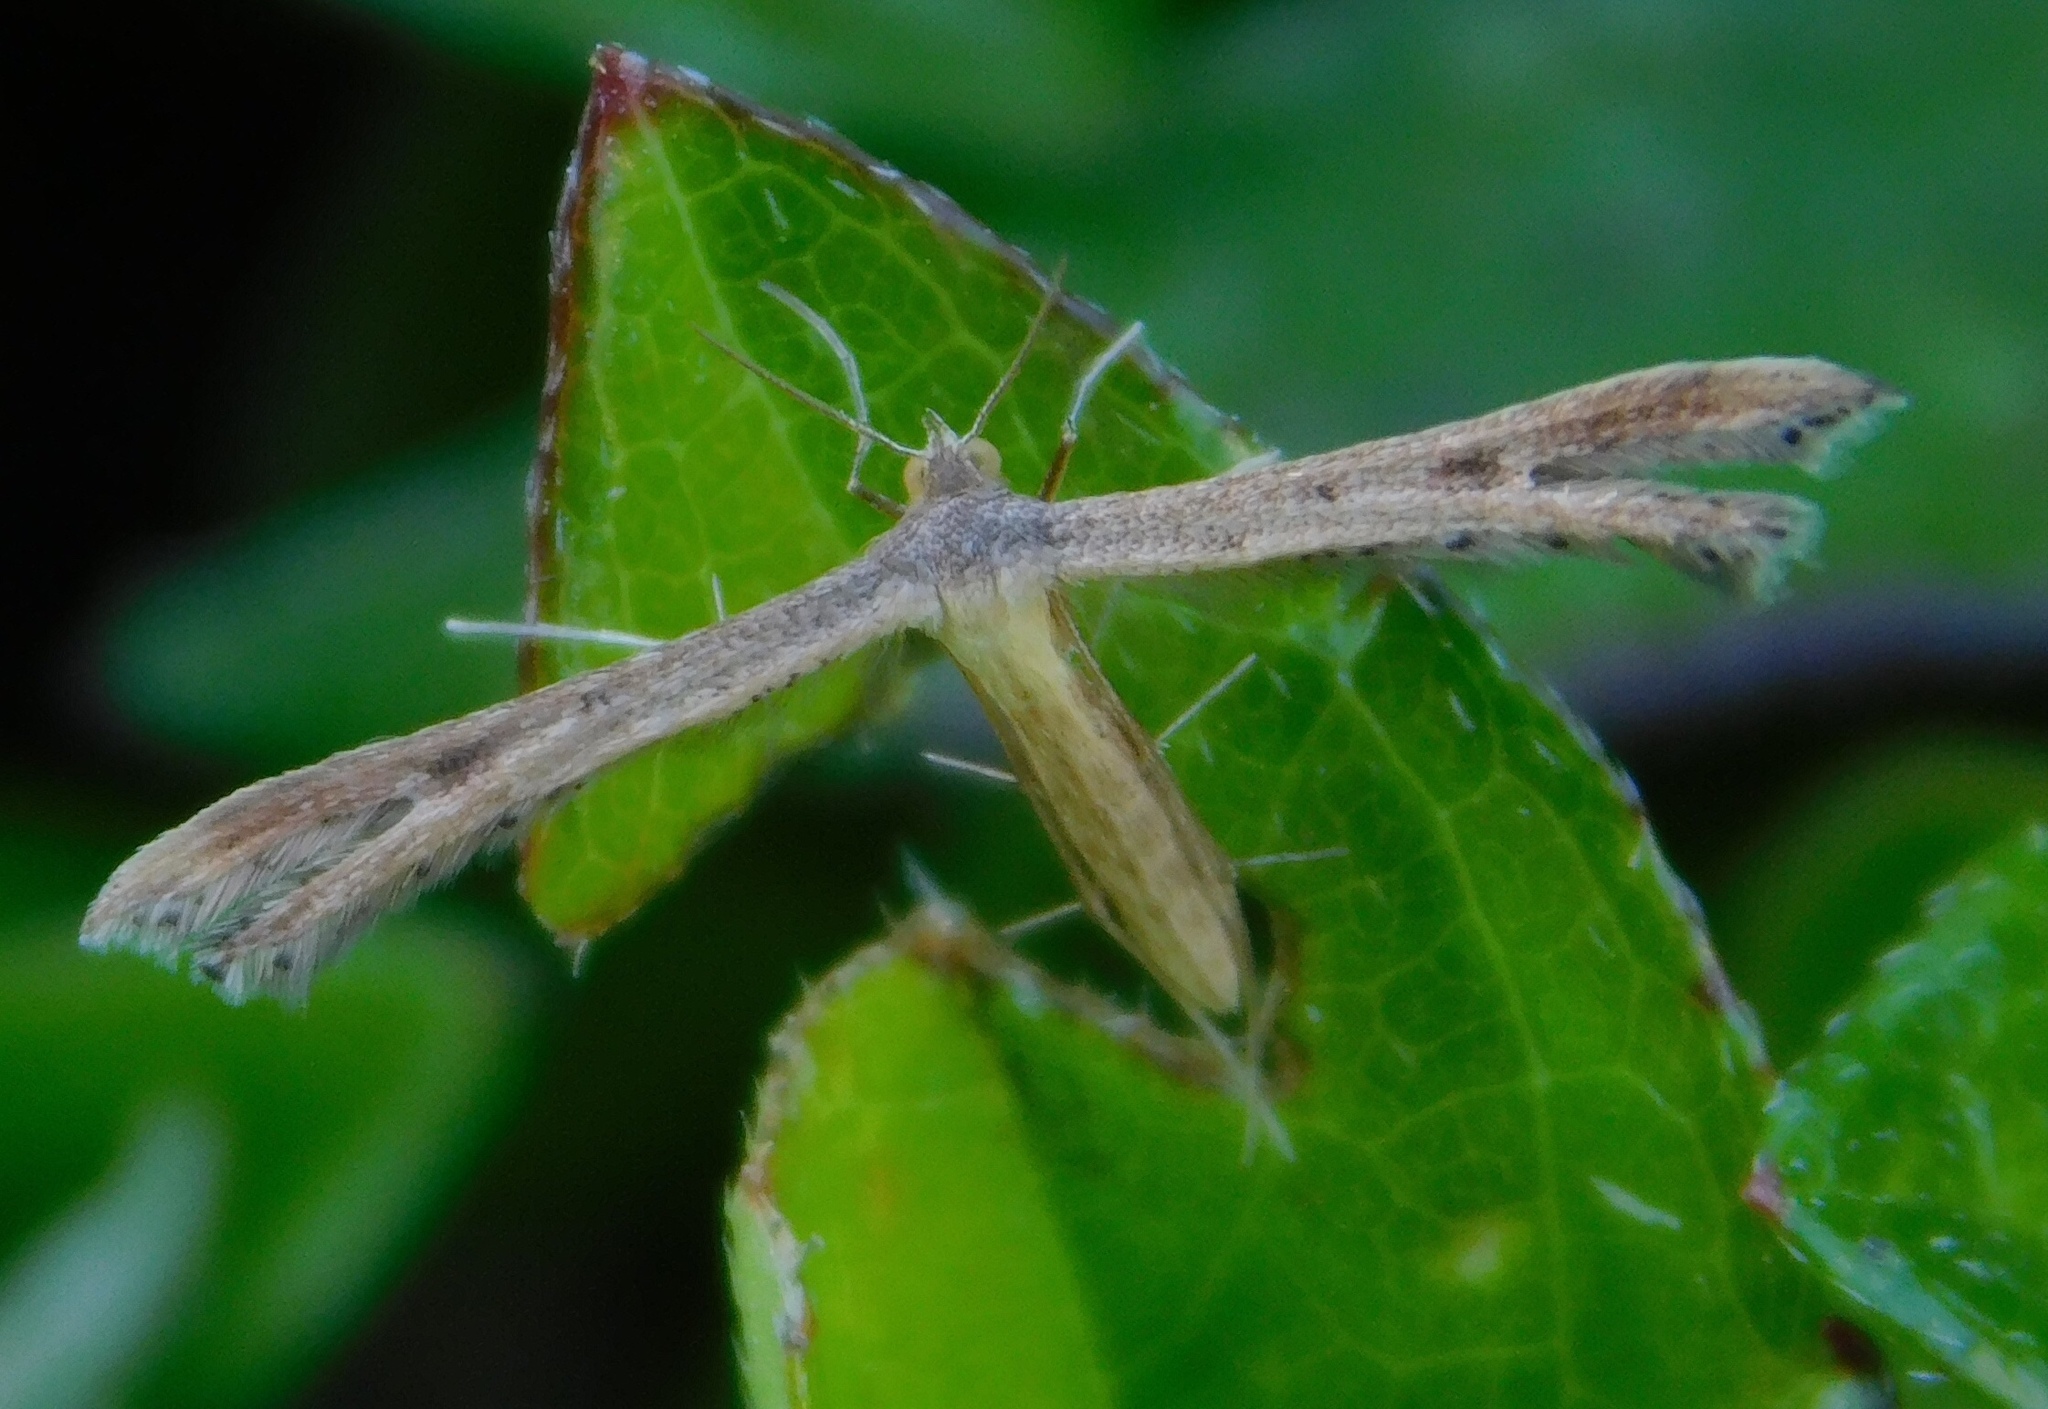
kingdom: Animalia
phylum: Arthropoda
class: Insecta
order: Lepidoptera
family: Pterophoridae
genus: Exelastis
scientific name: Exelastis pumilio
